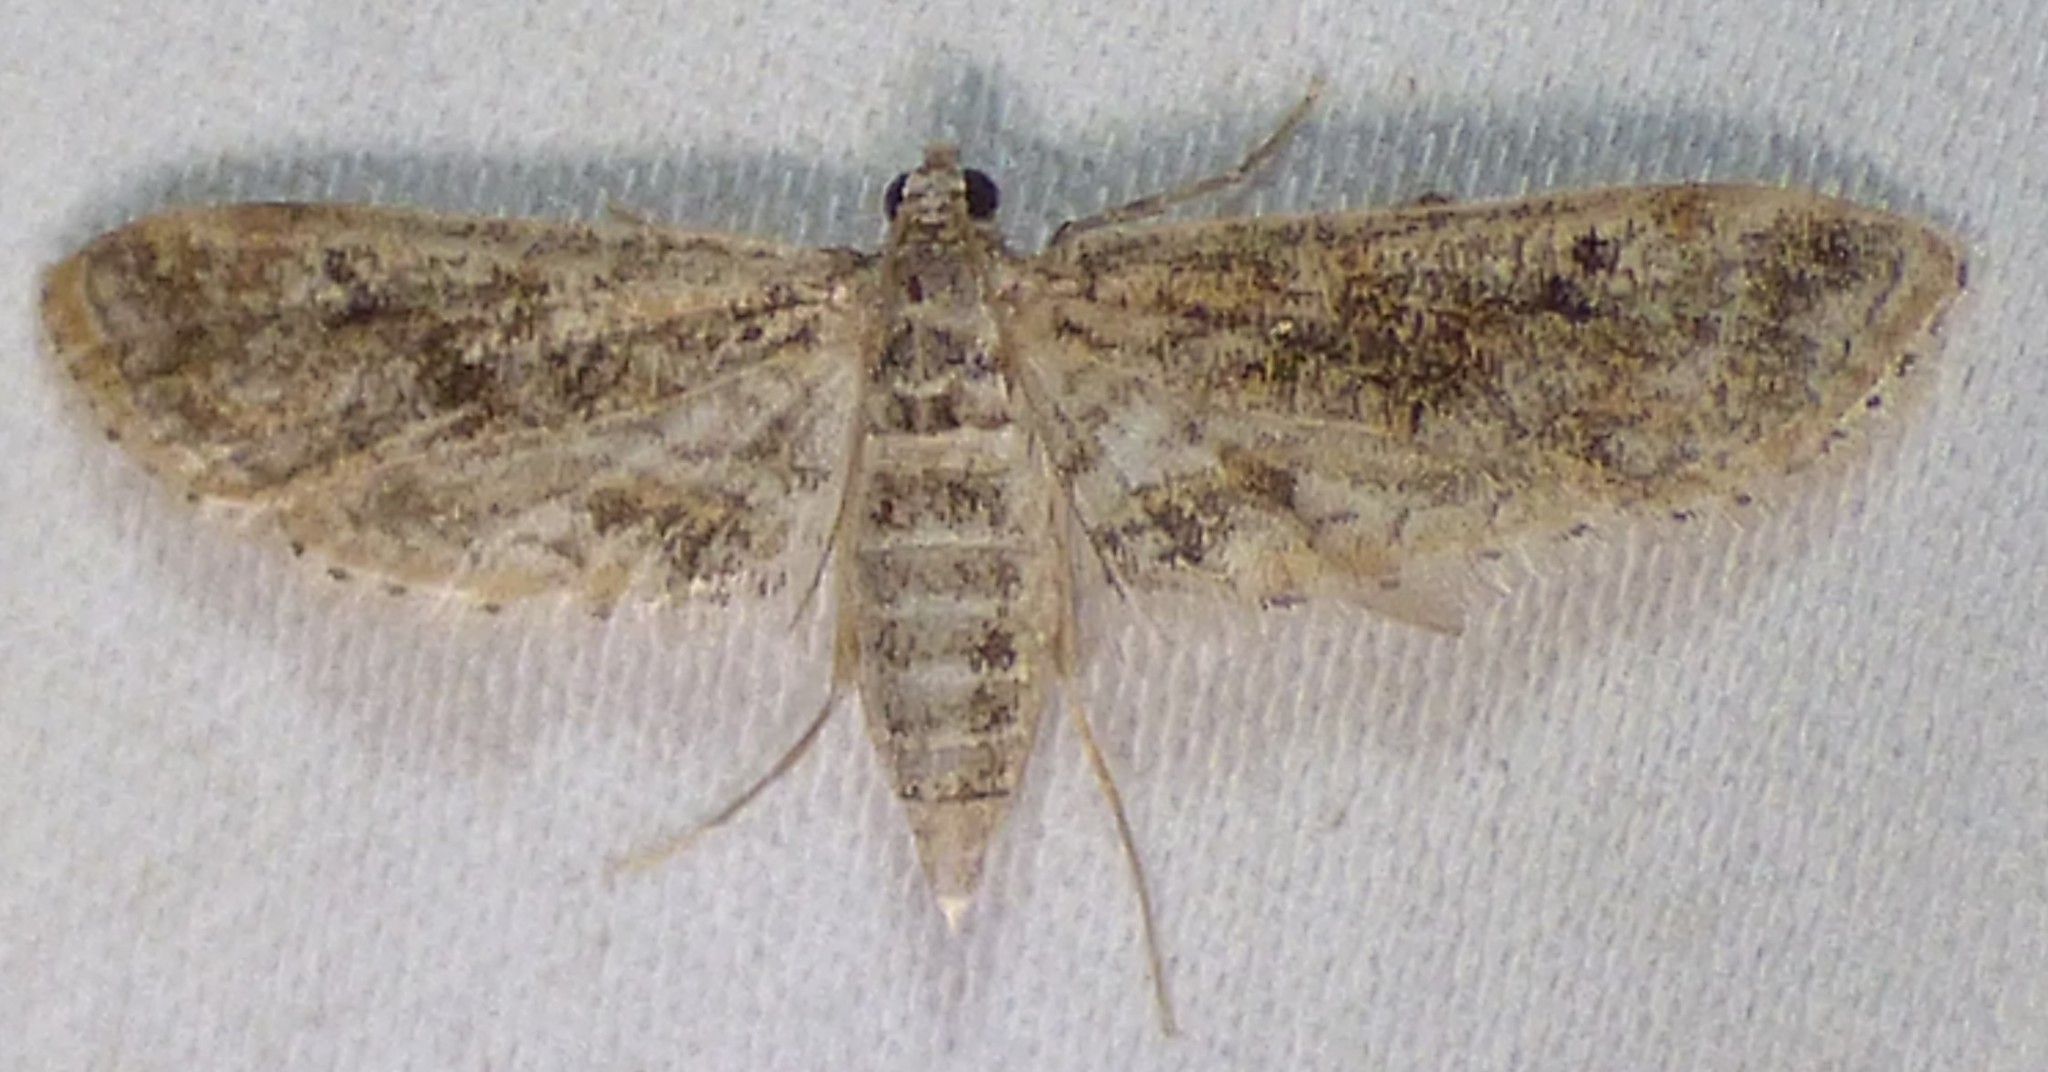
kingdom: Animalia
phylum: Arthropoda
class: Insecta
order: Lepidoptera
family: Crambidae
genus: Parapoynx
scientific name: Parapoynx diminutalis
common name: Hydrilla leafcutter
